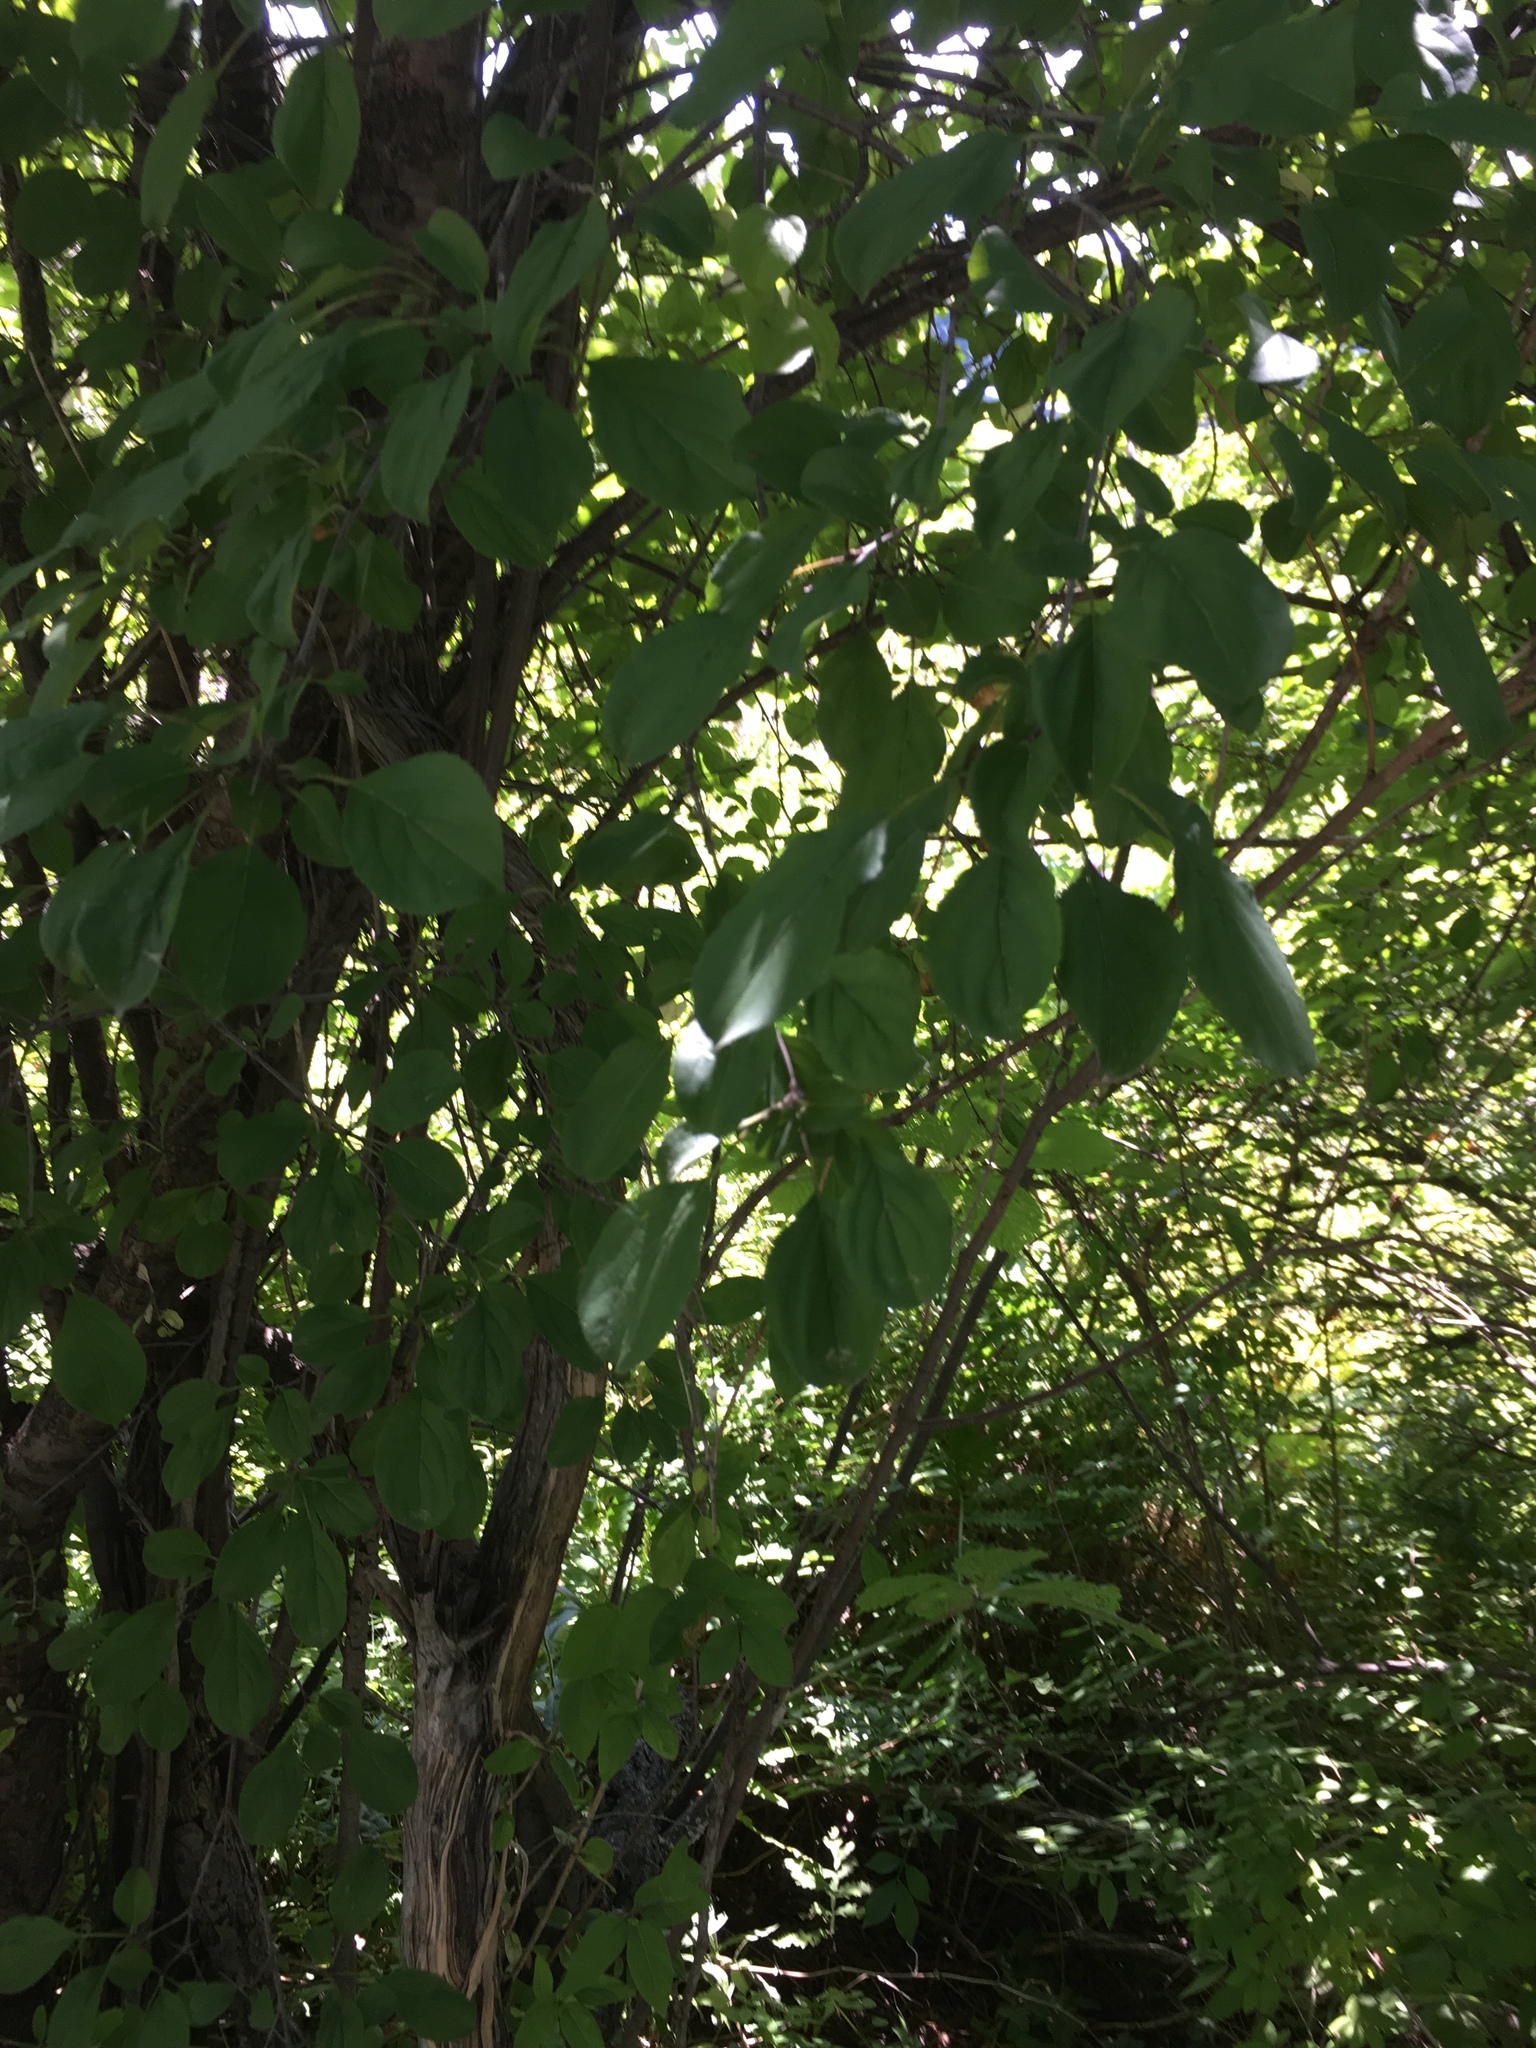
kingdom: Plantae
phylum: Tracheophyta
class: Magnoliopsida
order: Rosales
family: Rhamnaceae
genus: Rhamnus
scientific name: Rhamnus cathartica
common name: Common buckthorn
